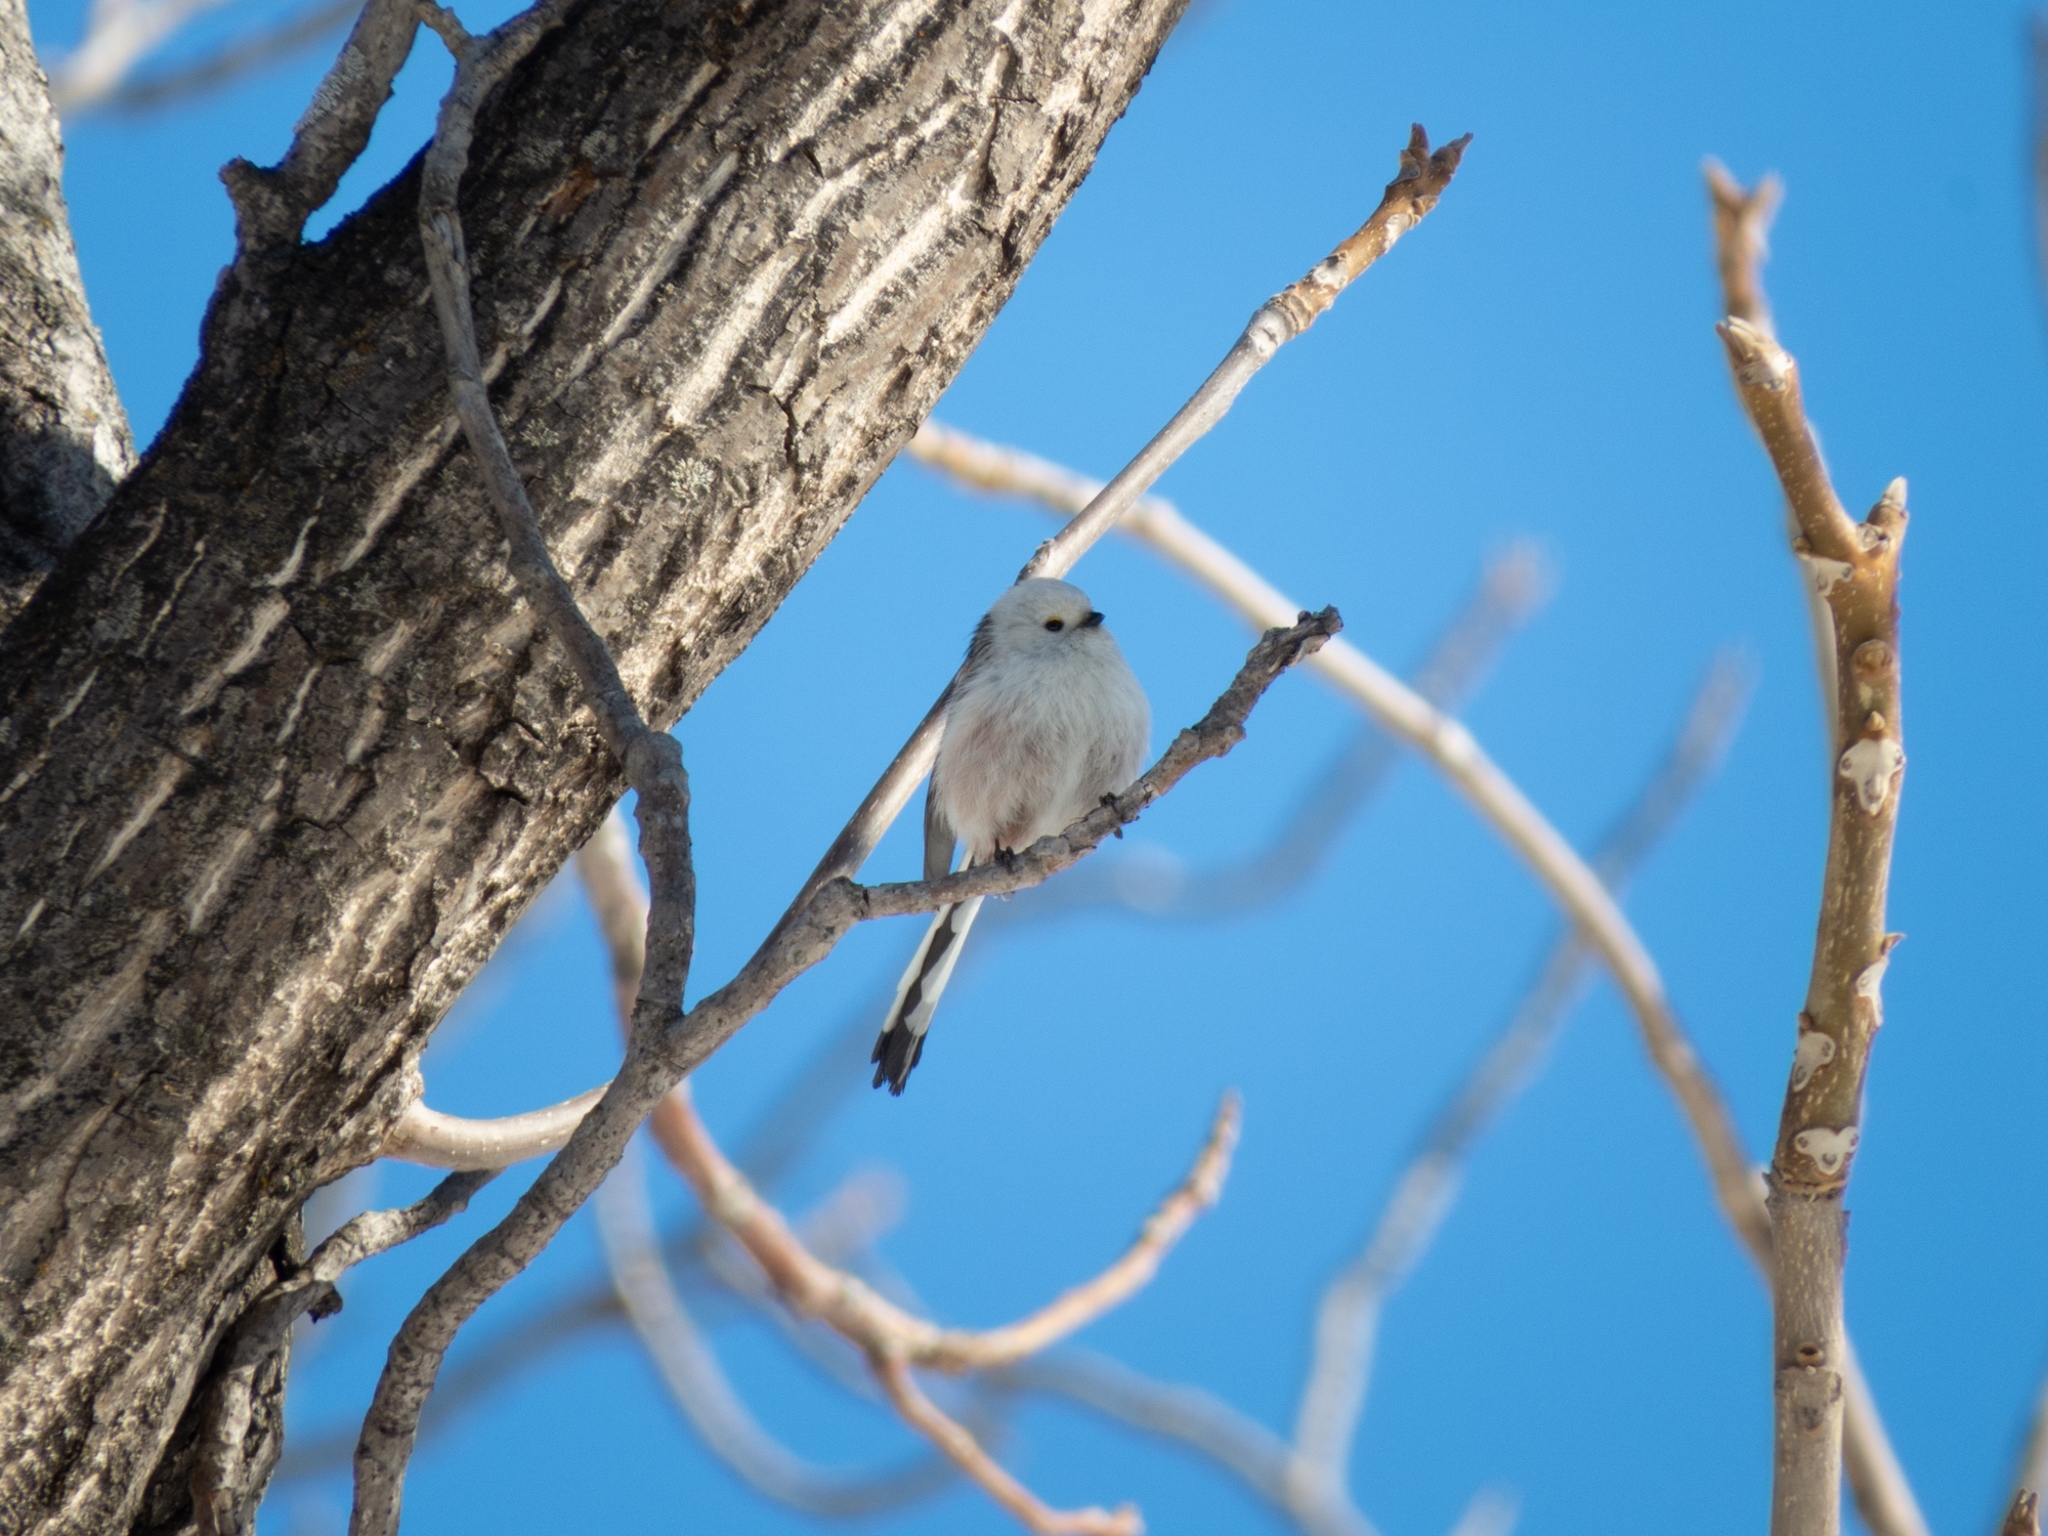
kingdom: Animalia
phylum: Chordata
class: Aves
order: Passeriformes
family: Aegithalidae
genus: Aegithalos
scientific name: Aegithalos caudatus
